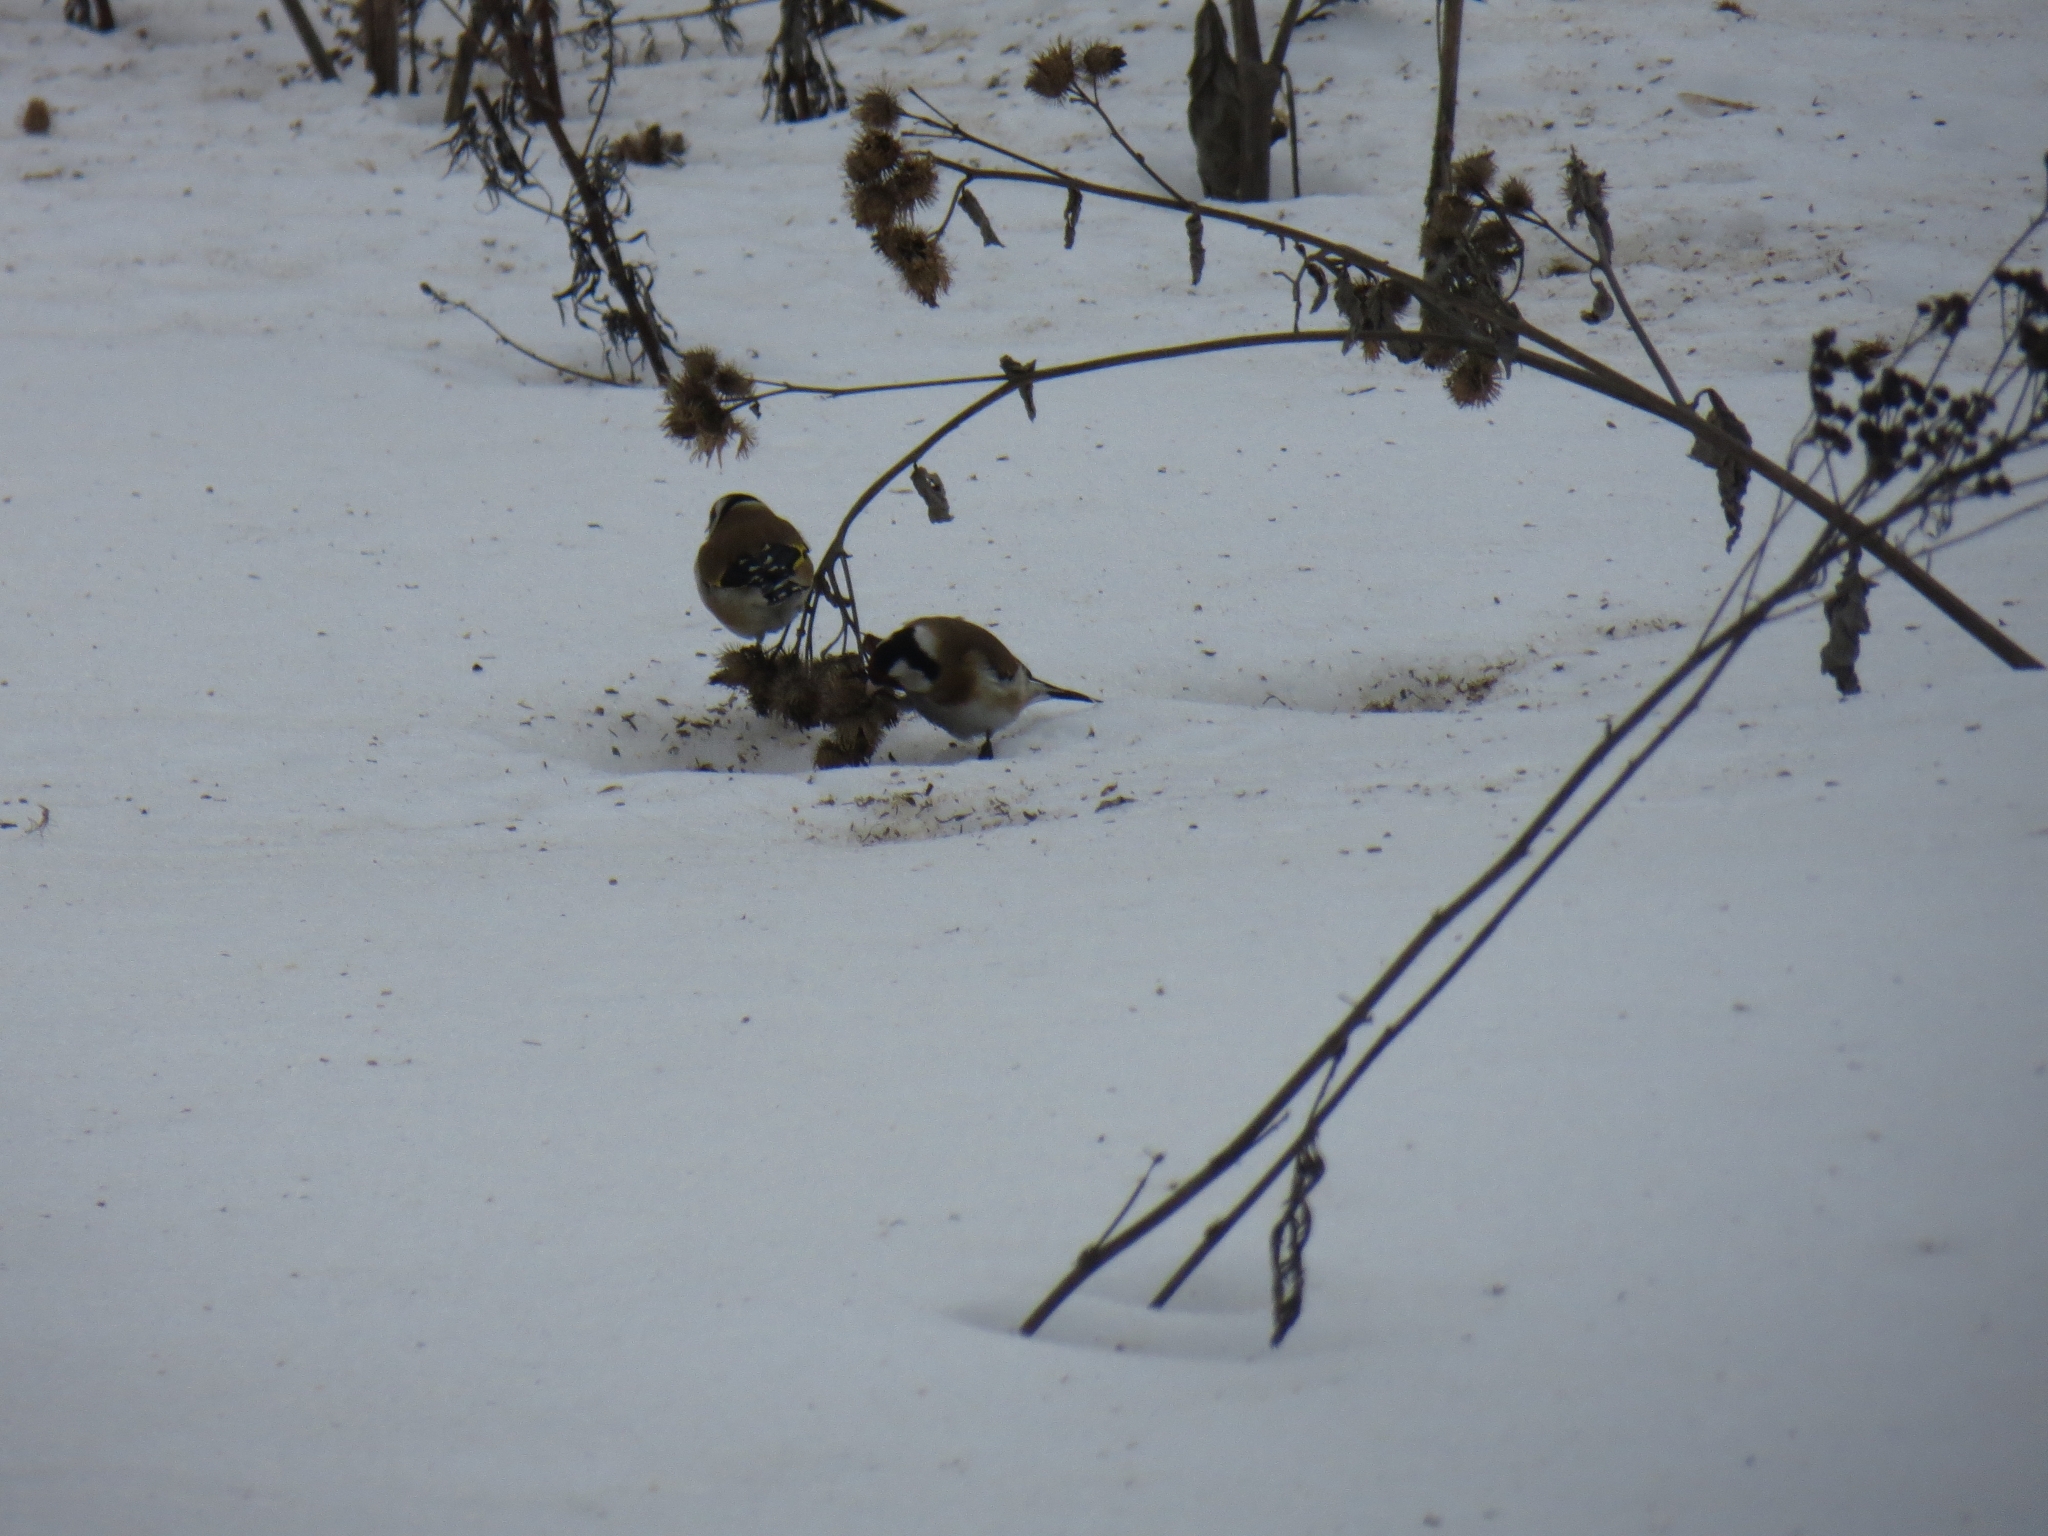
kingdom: Animalia
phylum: Chordata
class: Aves
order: Passeriformes
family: Fringillidae
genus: Carduelis
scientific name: Carduelis carduelis
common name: European goldfinch
